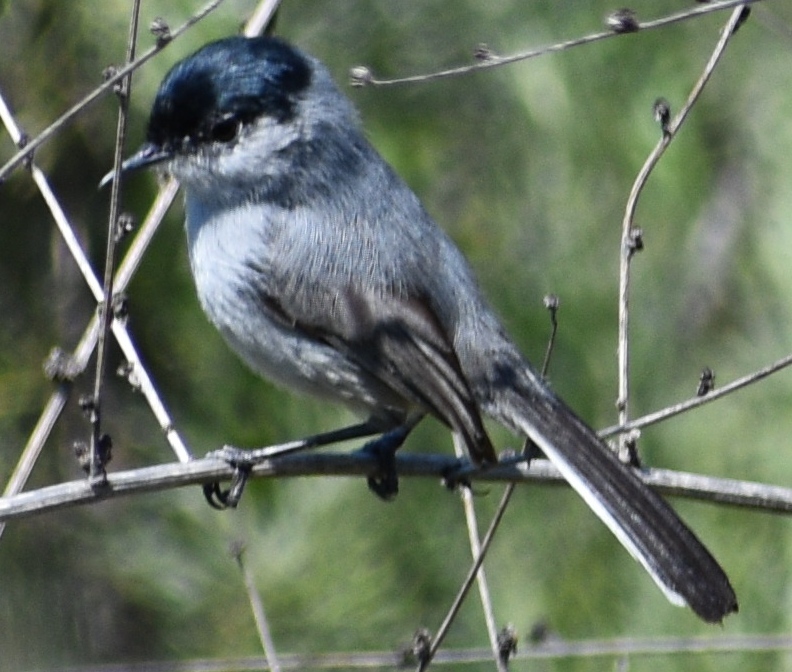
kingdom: Animalia
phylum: Chordata
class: Aves
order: Passeriformes
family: Polioptilidae
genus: Polioptila
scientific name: Polioptila californica
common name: California gnatcatcher
